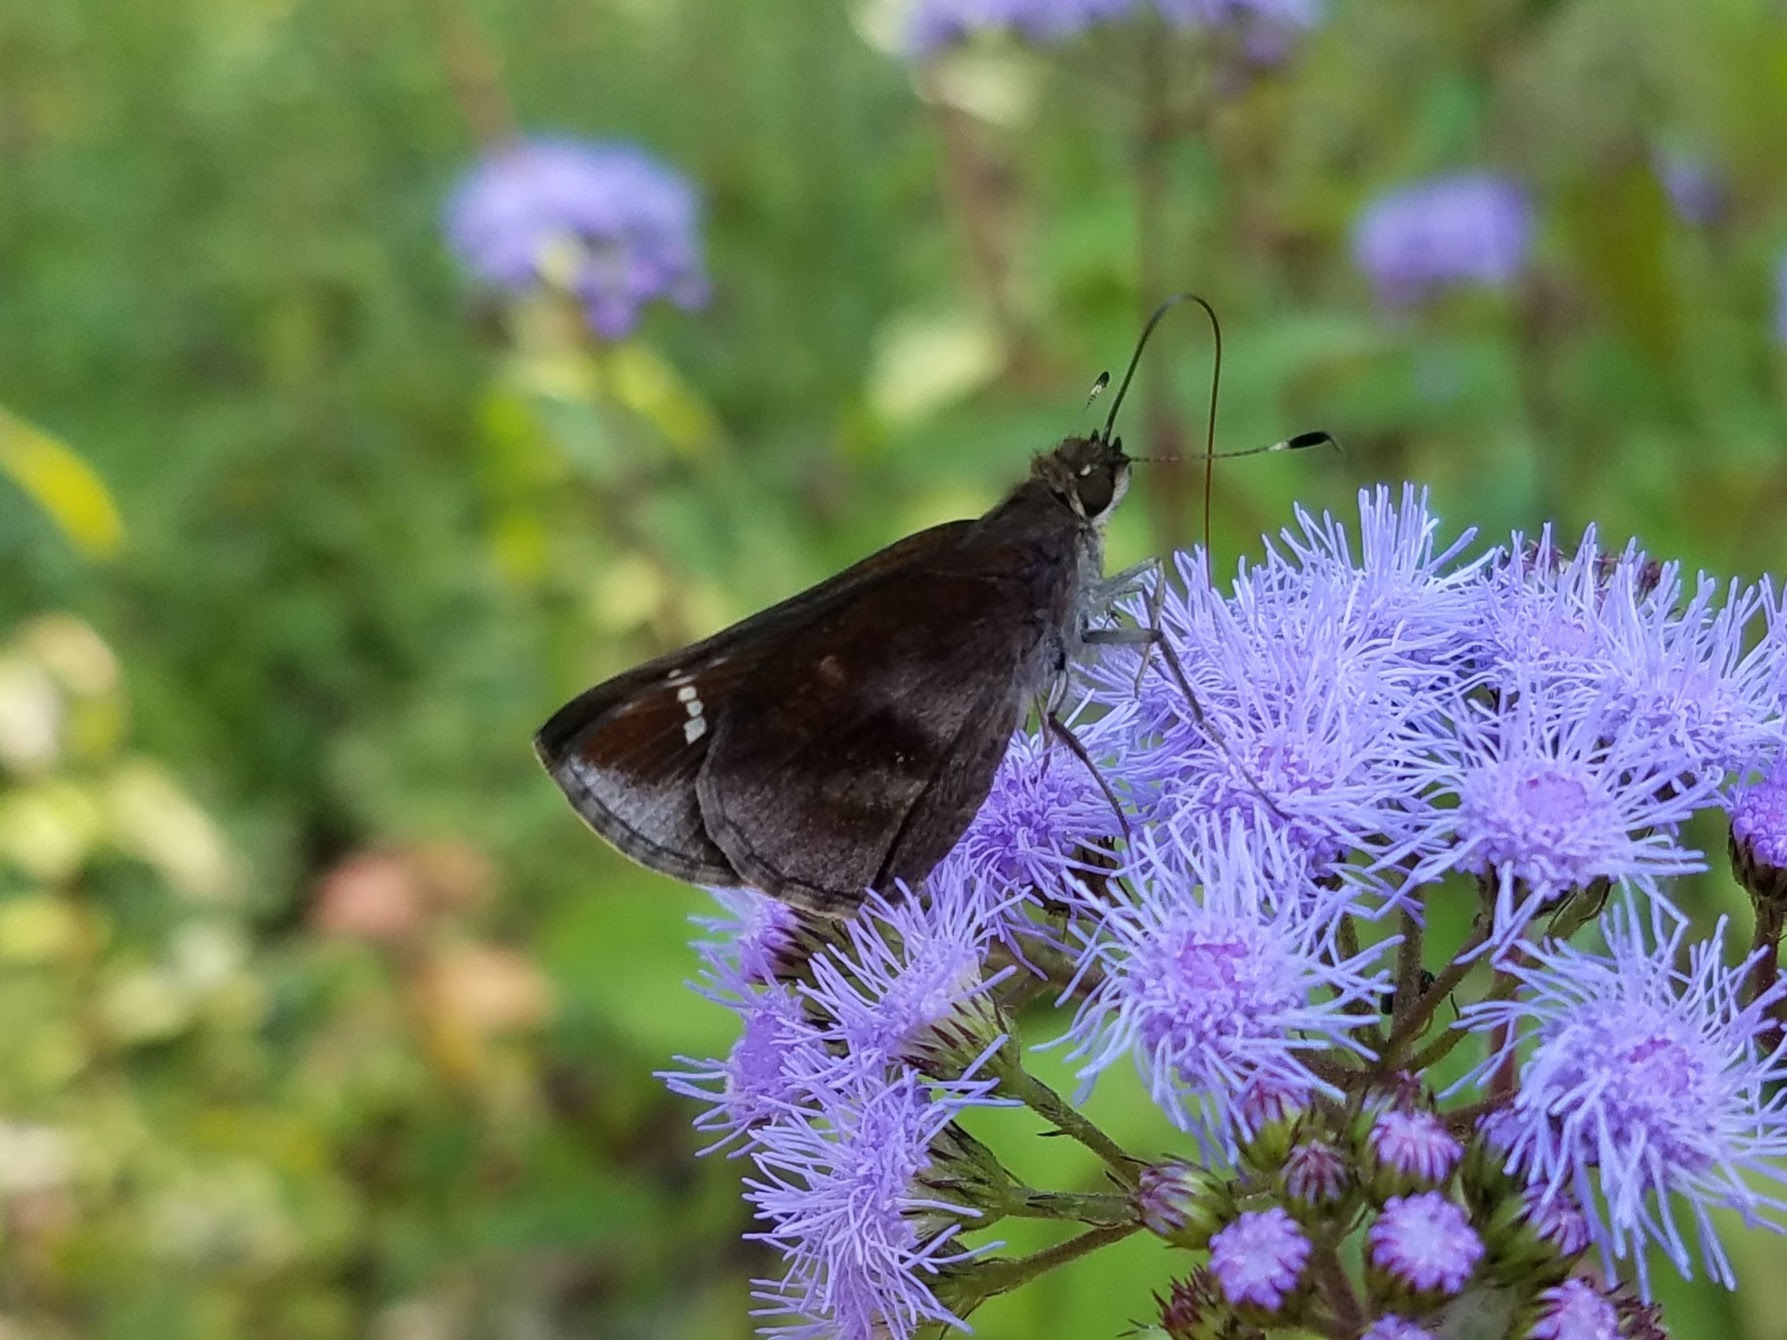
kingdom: Animalia
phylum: Arthropoda
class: Insecta
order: Lepidoptera
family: Hesperiidae
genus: Lerema
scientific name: Lerema accius
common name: Clouded skipper
